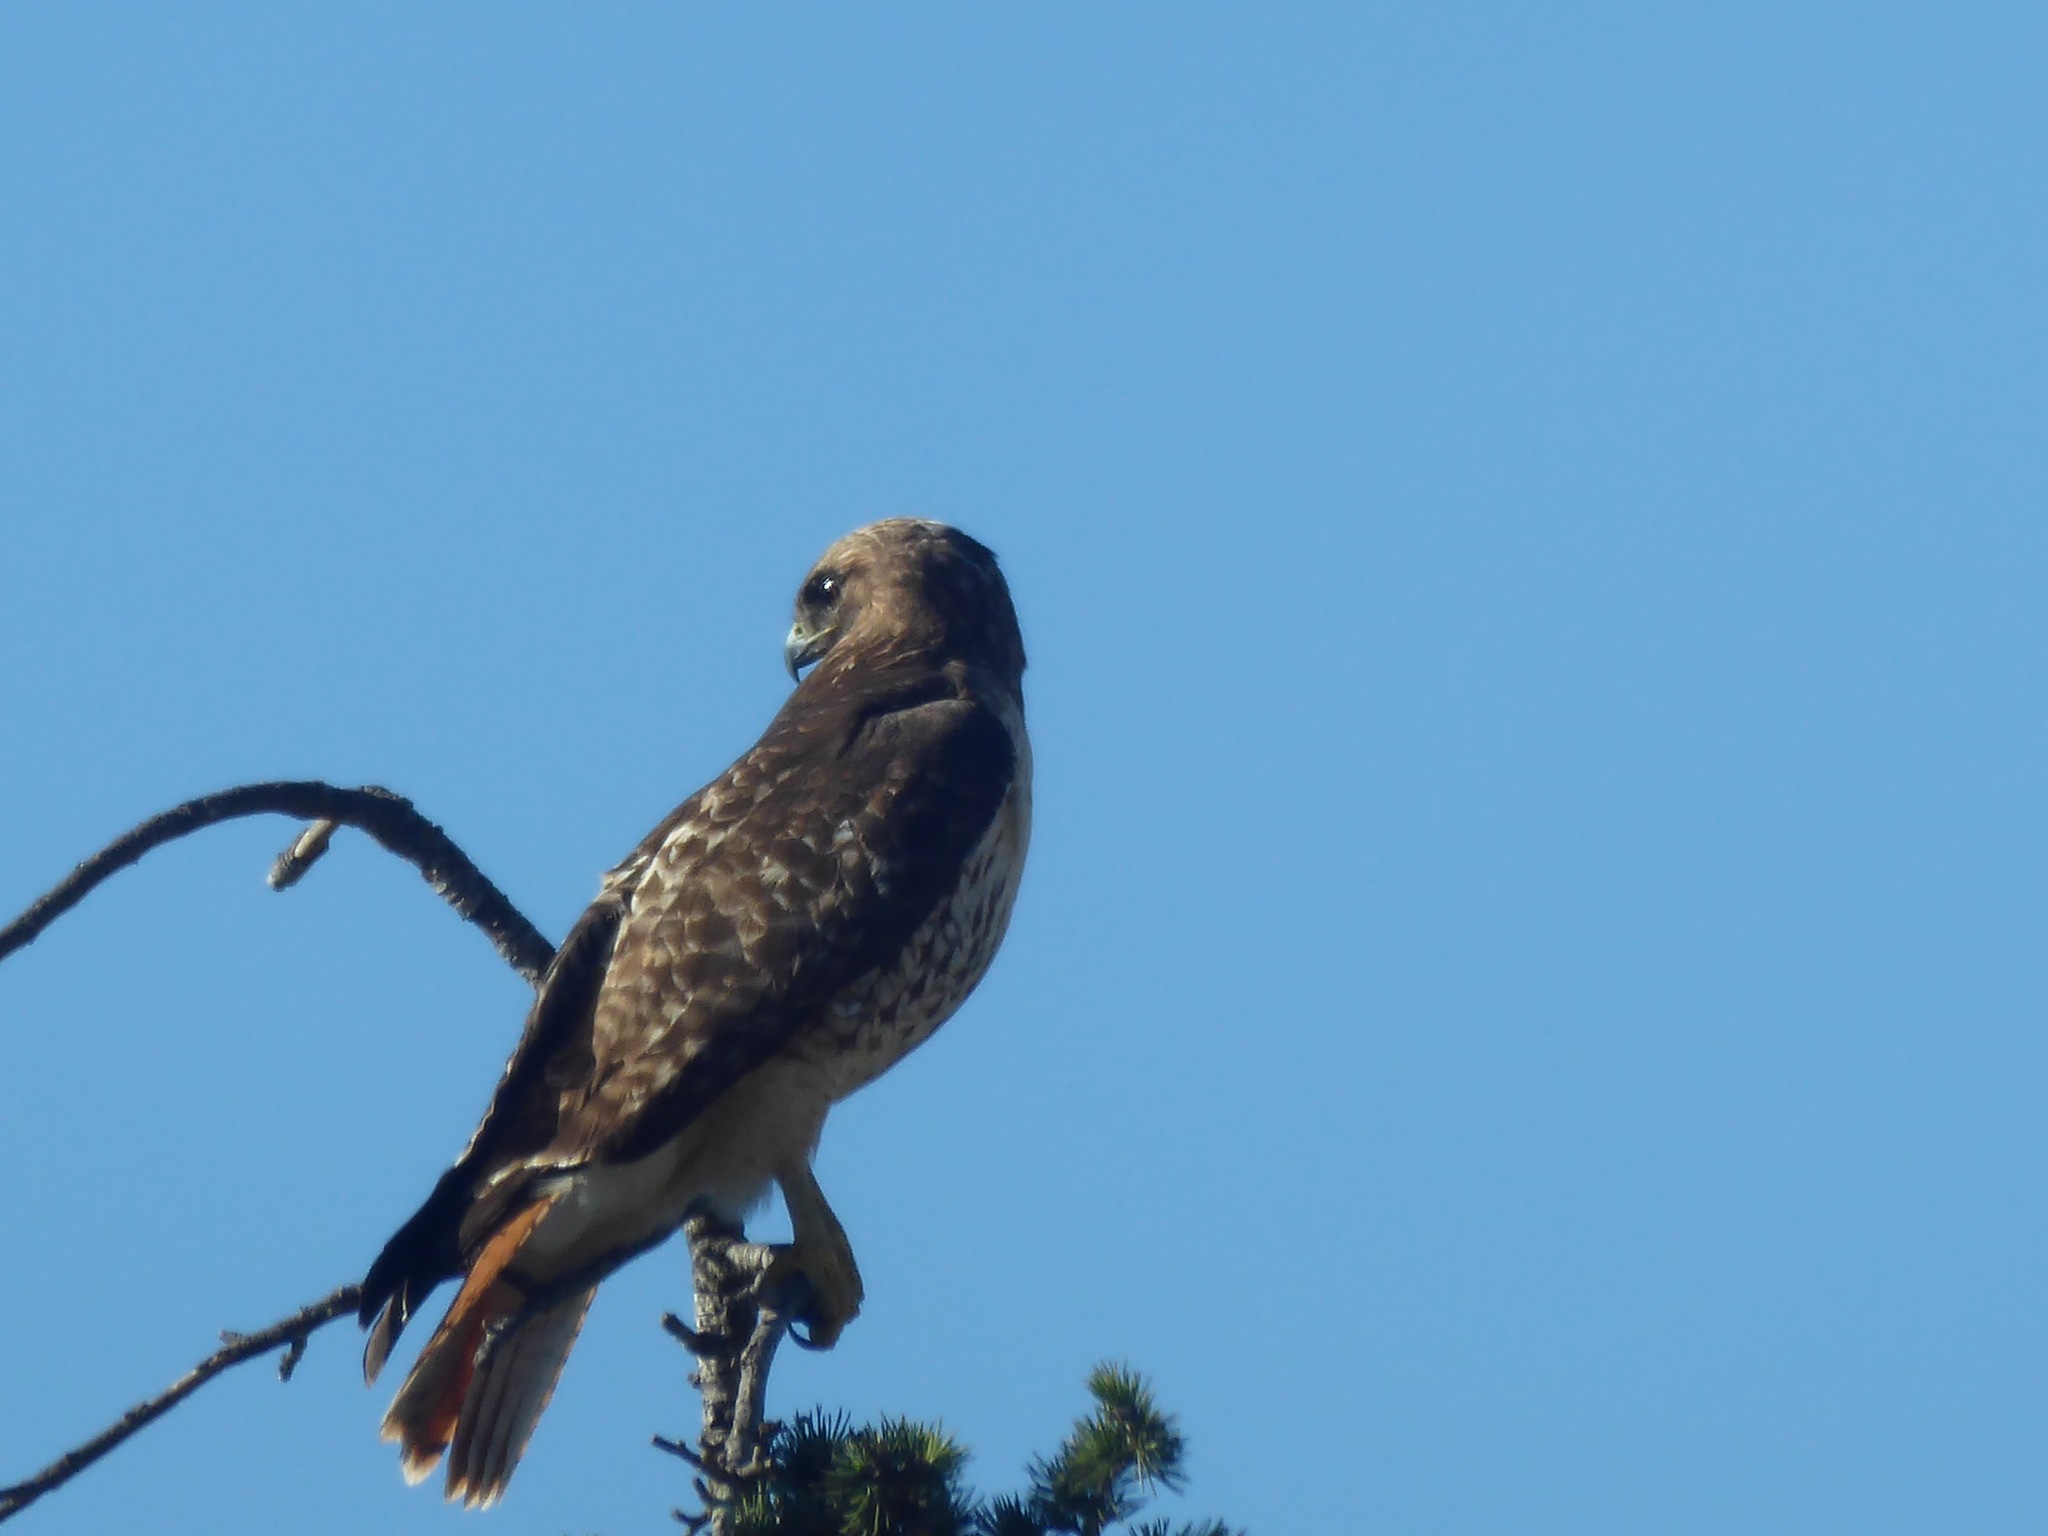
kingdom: Animalia
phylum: Chordata
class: Aves
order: Accipitriformes
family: Accipitridae
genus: Buteo
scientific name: Buteo jamaicensis
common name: Red-tailed hawk
